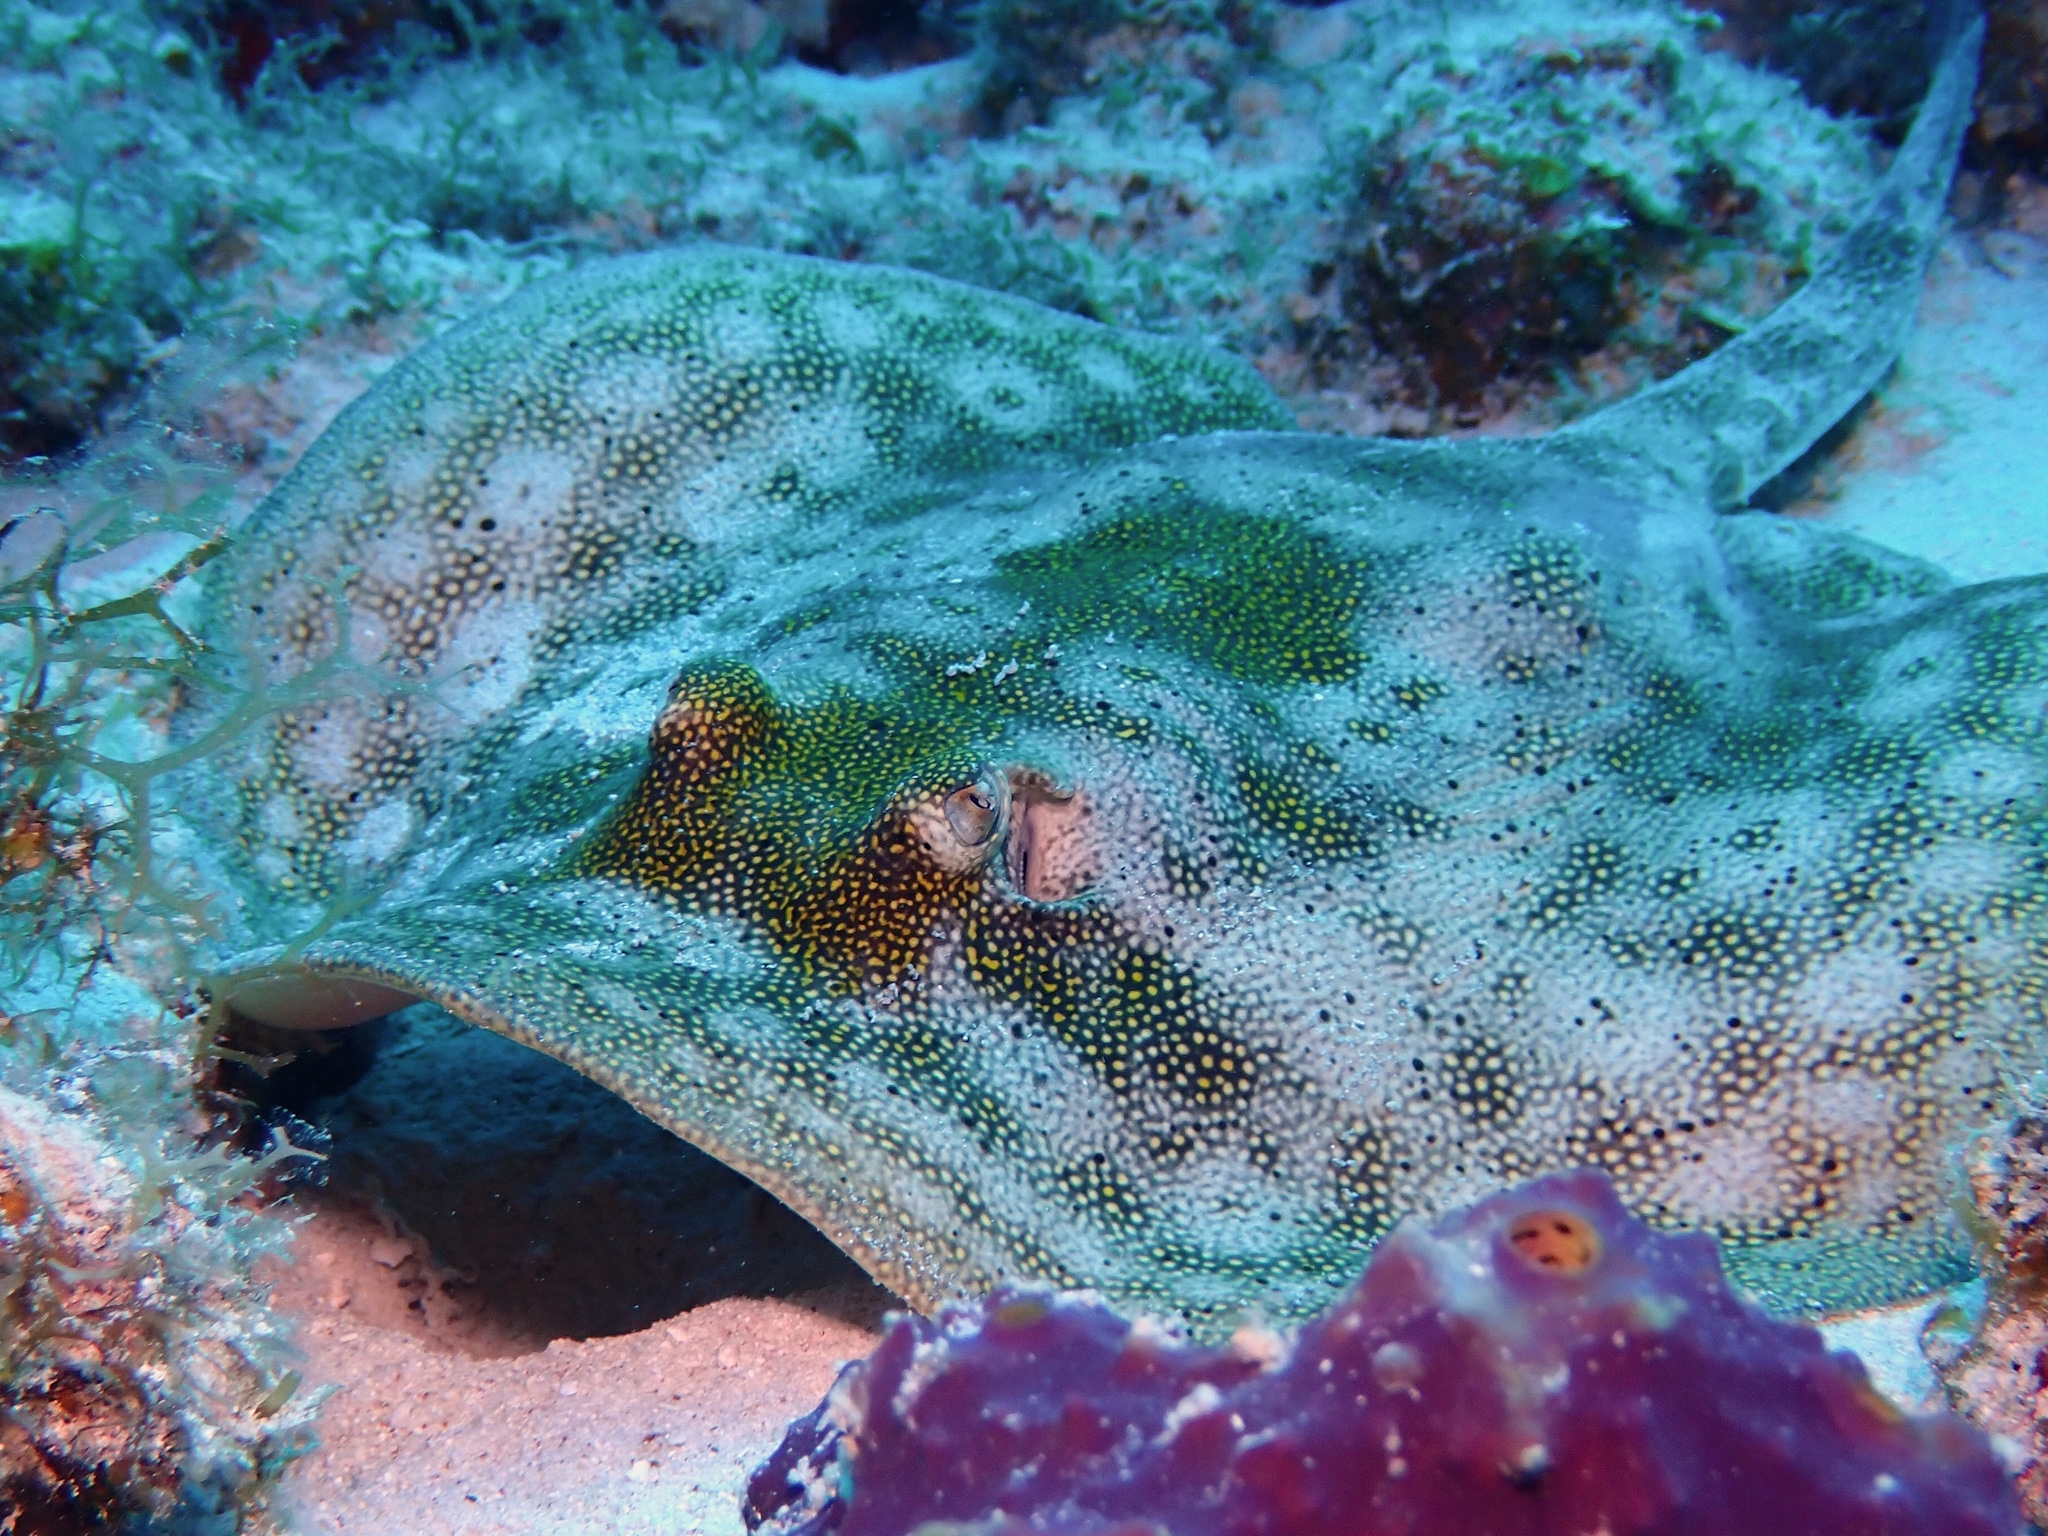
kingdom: Animalia
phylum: Chordata
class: Elasmobranchii
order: Myliobatiformes
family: Urotrygonidae
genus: Urobatis
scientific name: Urobatis jamaicensis
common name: Yellow stingray
